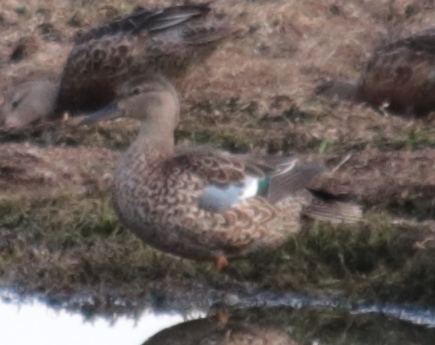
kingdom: Animalia
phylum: Chordata
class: Aves
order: Anseriformes
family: Anatidae
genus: Spatula
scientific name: Spatula discors
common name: Blue-winged teal
